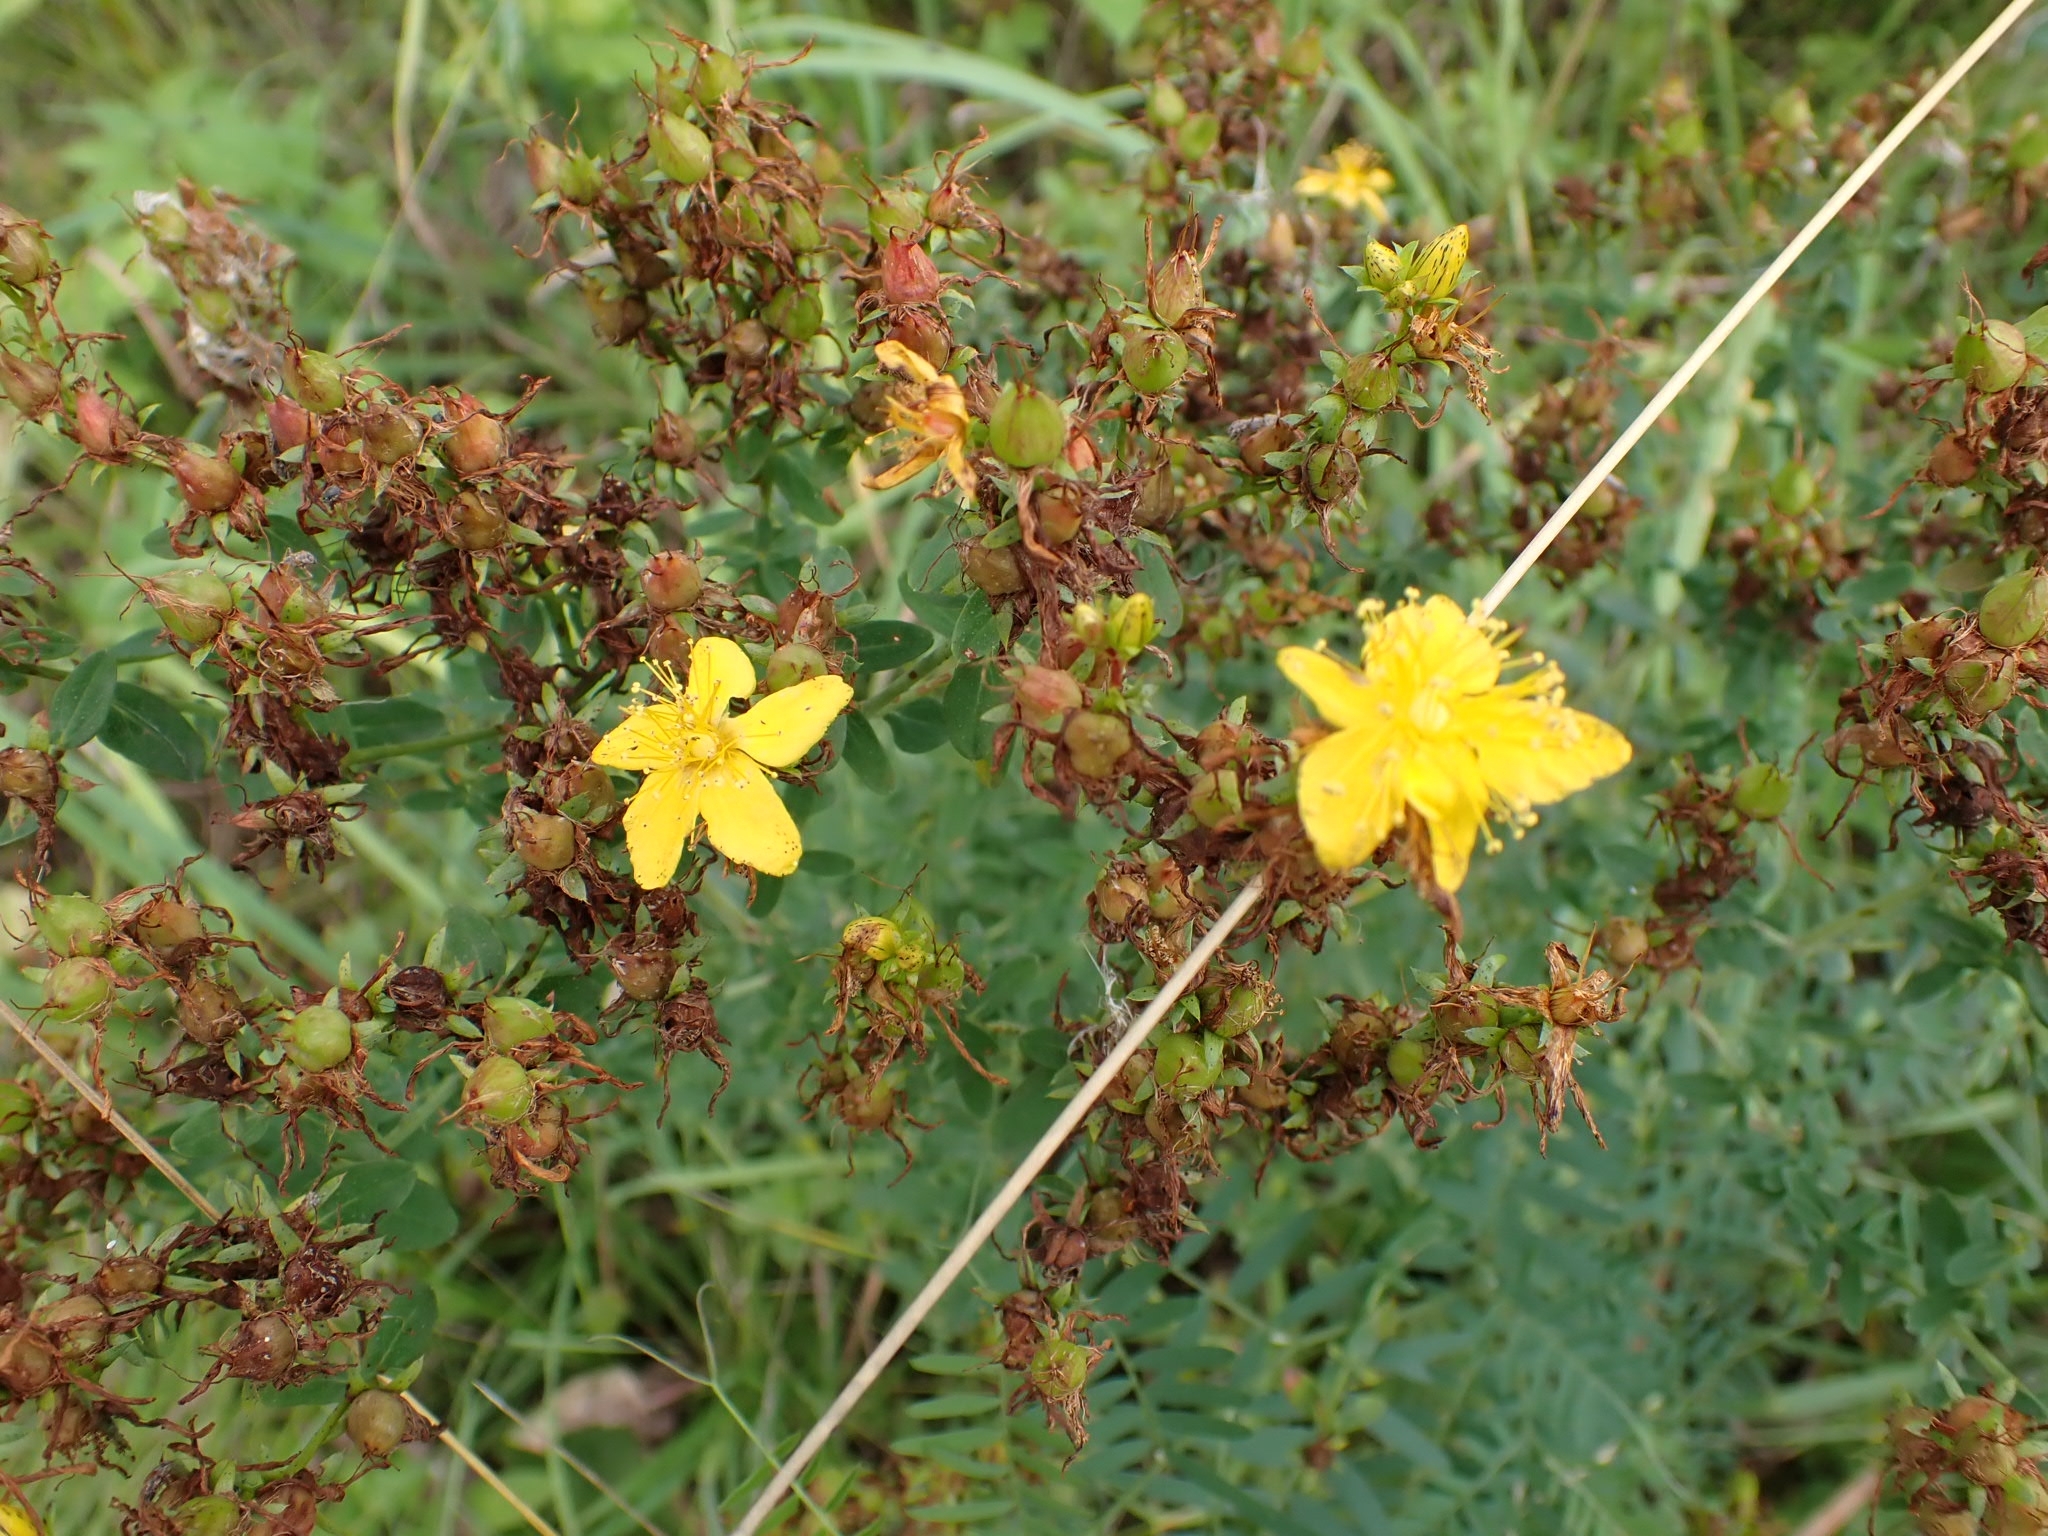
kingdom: Plantae
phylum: Tracheophyta
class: Magnoliopsida
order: Malpighiales
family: Hypericaceae
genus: Hypericum
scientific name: Hypericum perforatum
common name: Common st. johnswort
